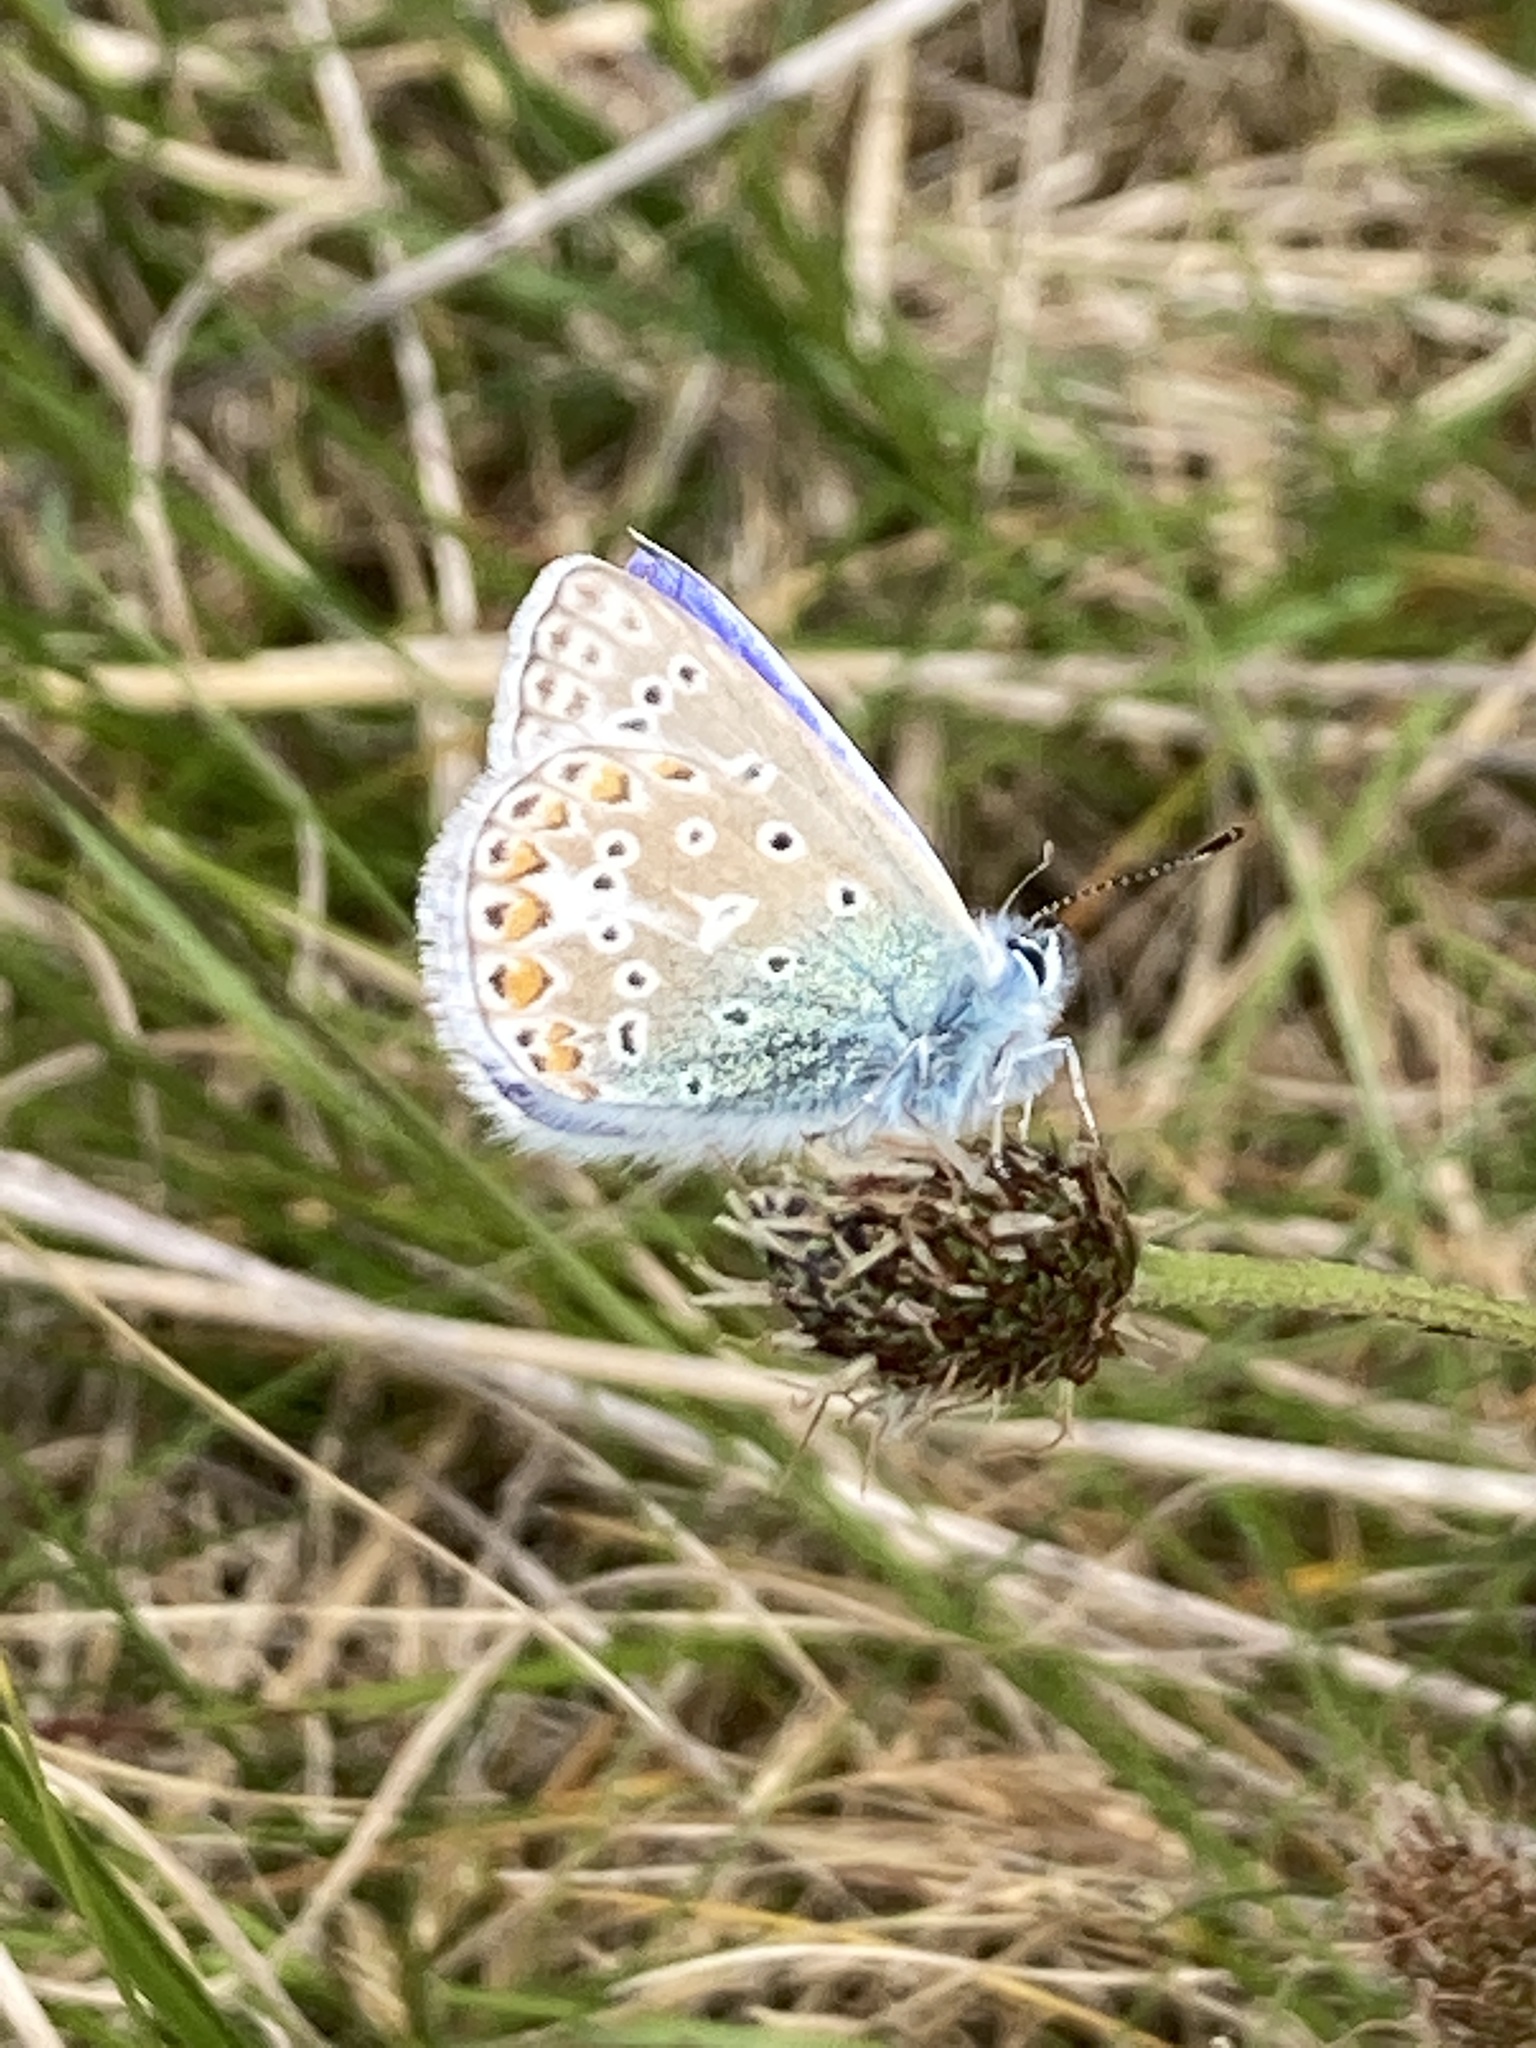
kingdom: Animalia
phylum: Arthropoda
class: Insecta
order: Lepidoptera
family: Lycaenidae
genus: Polyommatus
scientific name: Polyommatus icarus
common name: Common blue
